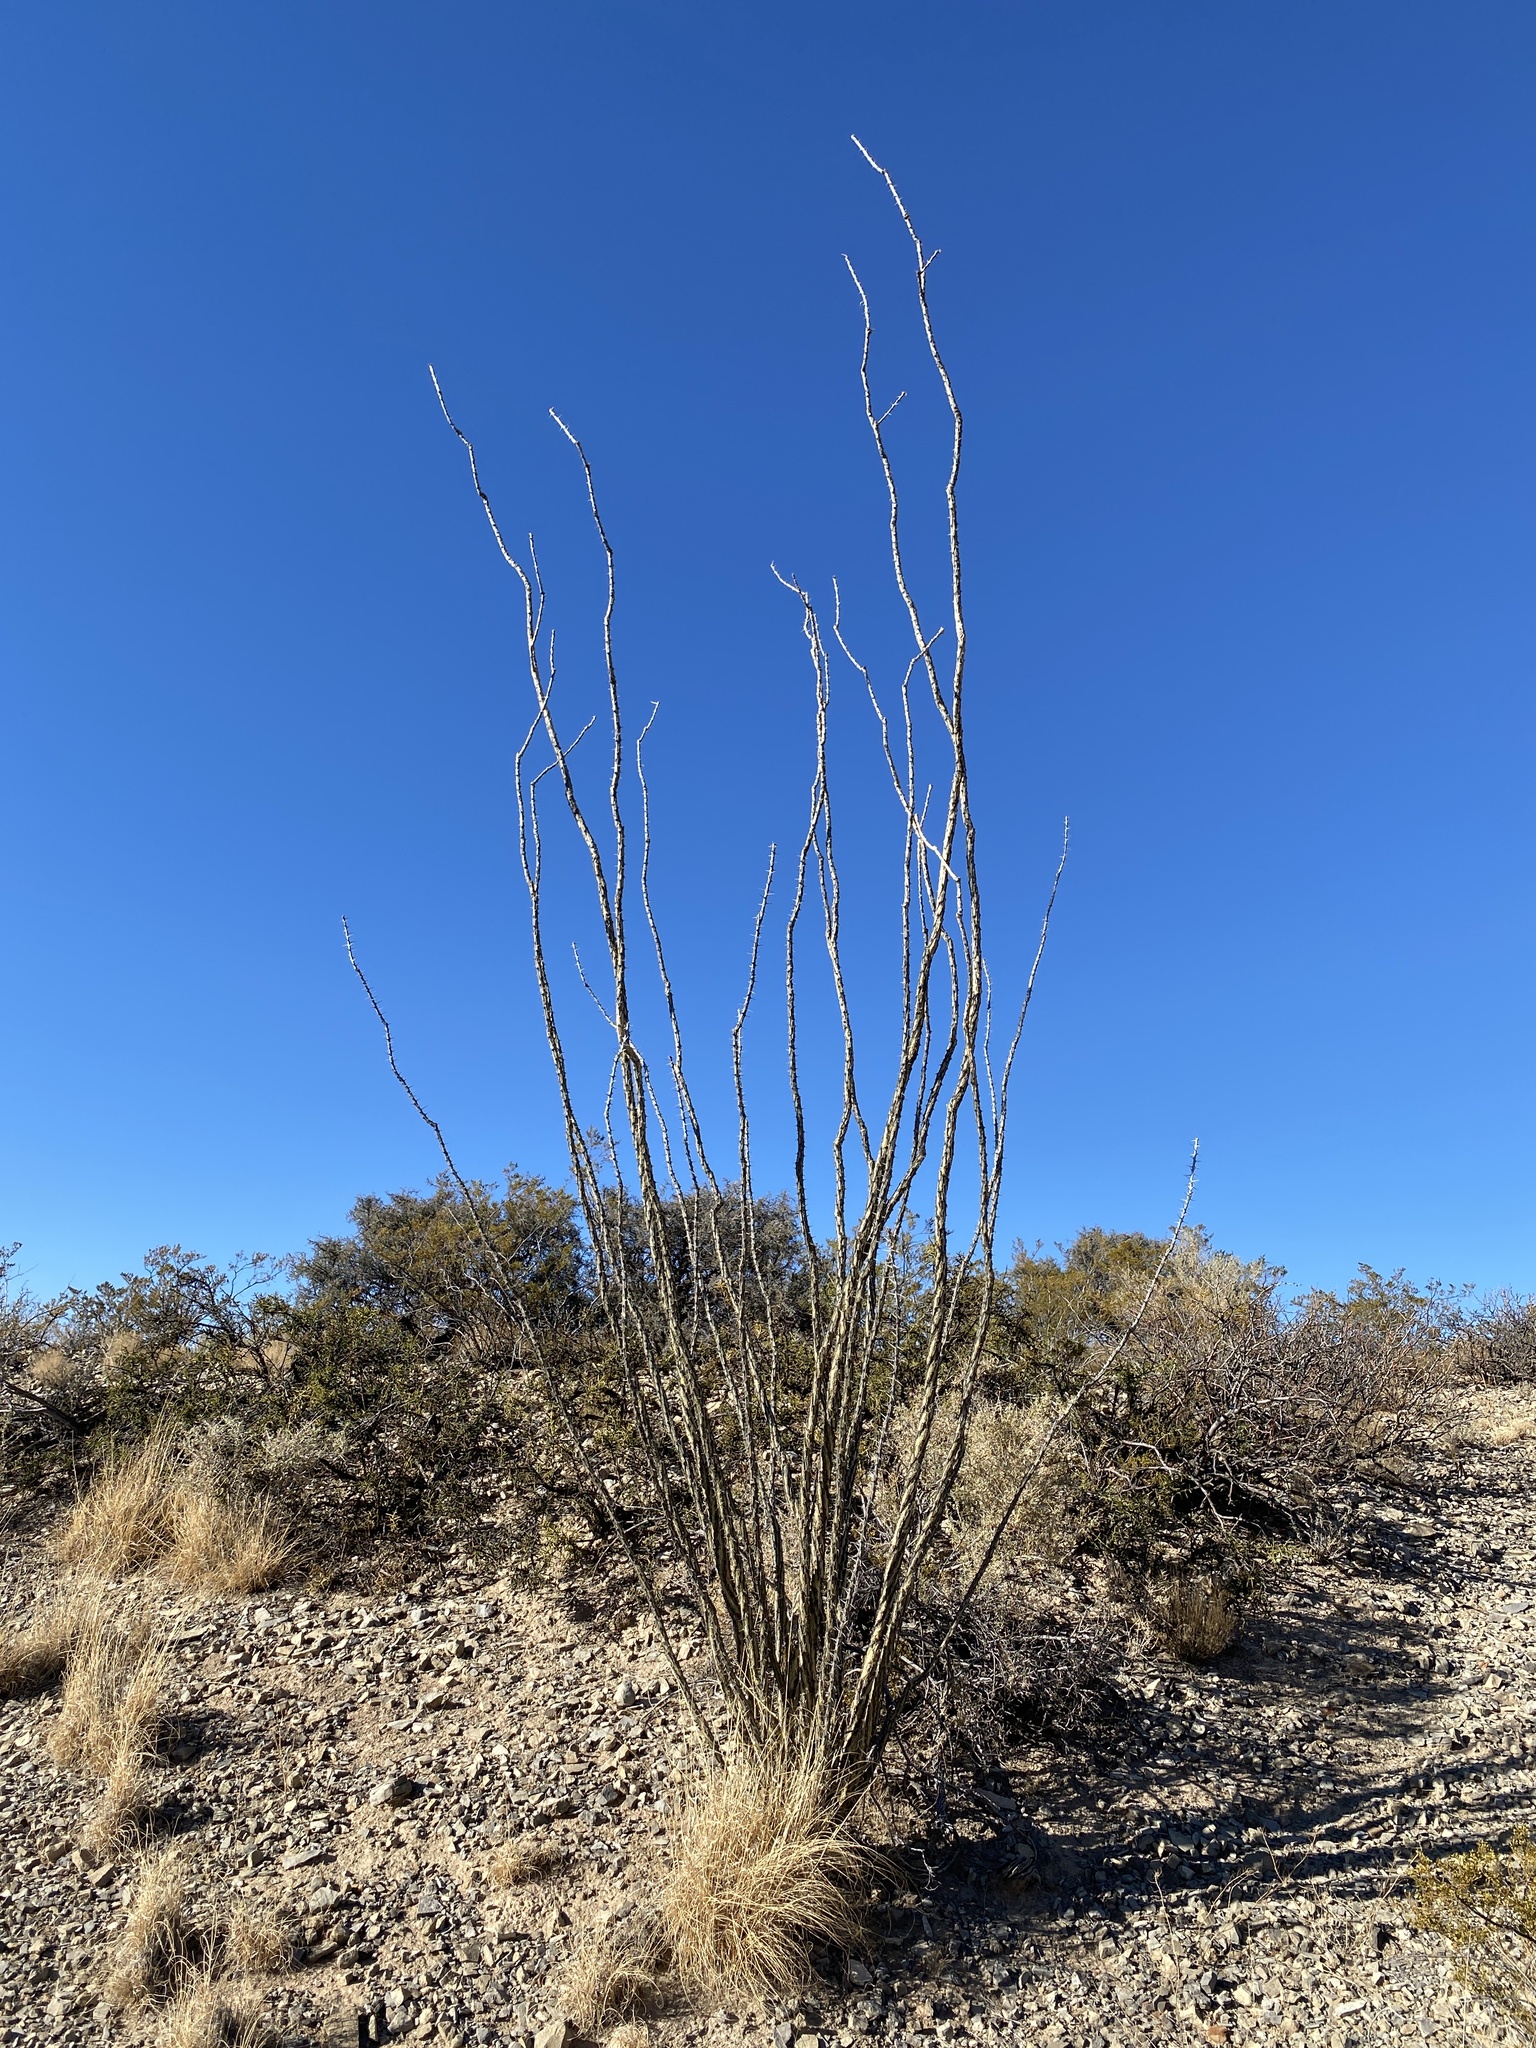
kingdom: Plantae
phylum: Tracheophyta
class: Magnoliopsida
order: Ericales
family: Fouquieriaceae
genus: Fouquieria
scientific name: Fouquieria splendens
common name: Vine-cactus
